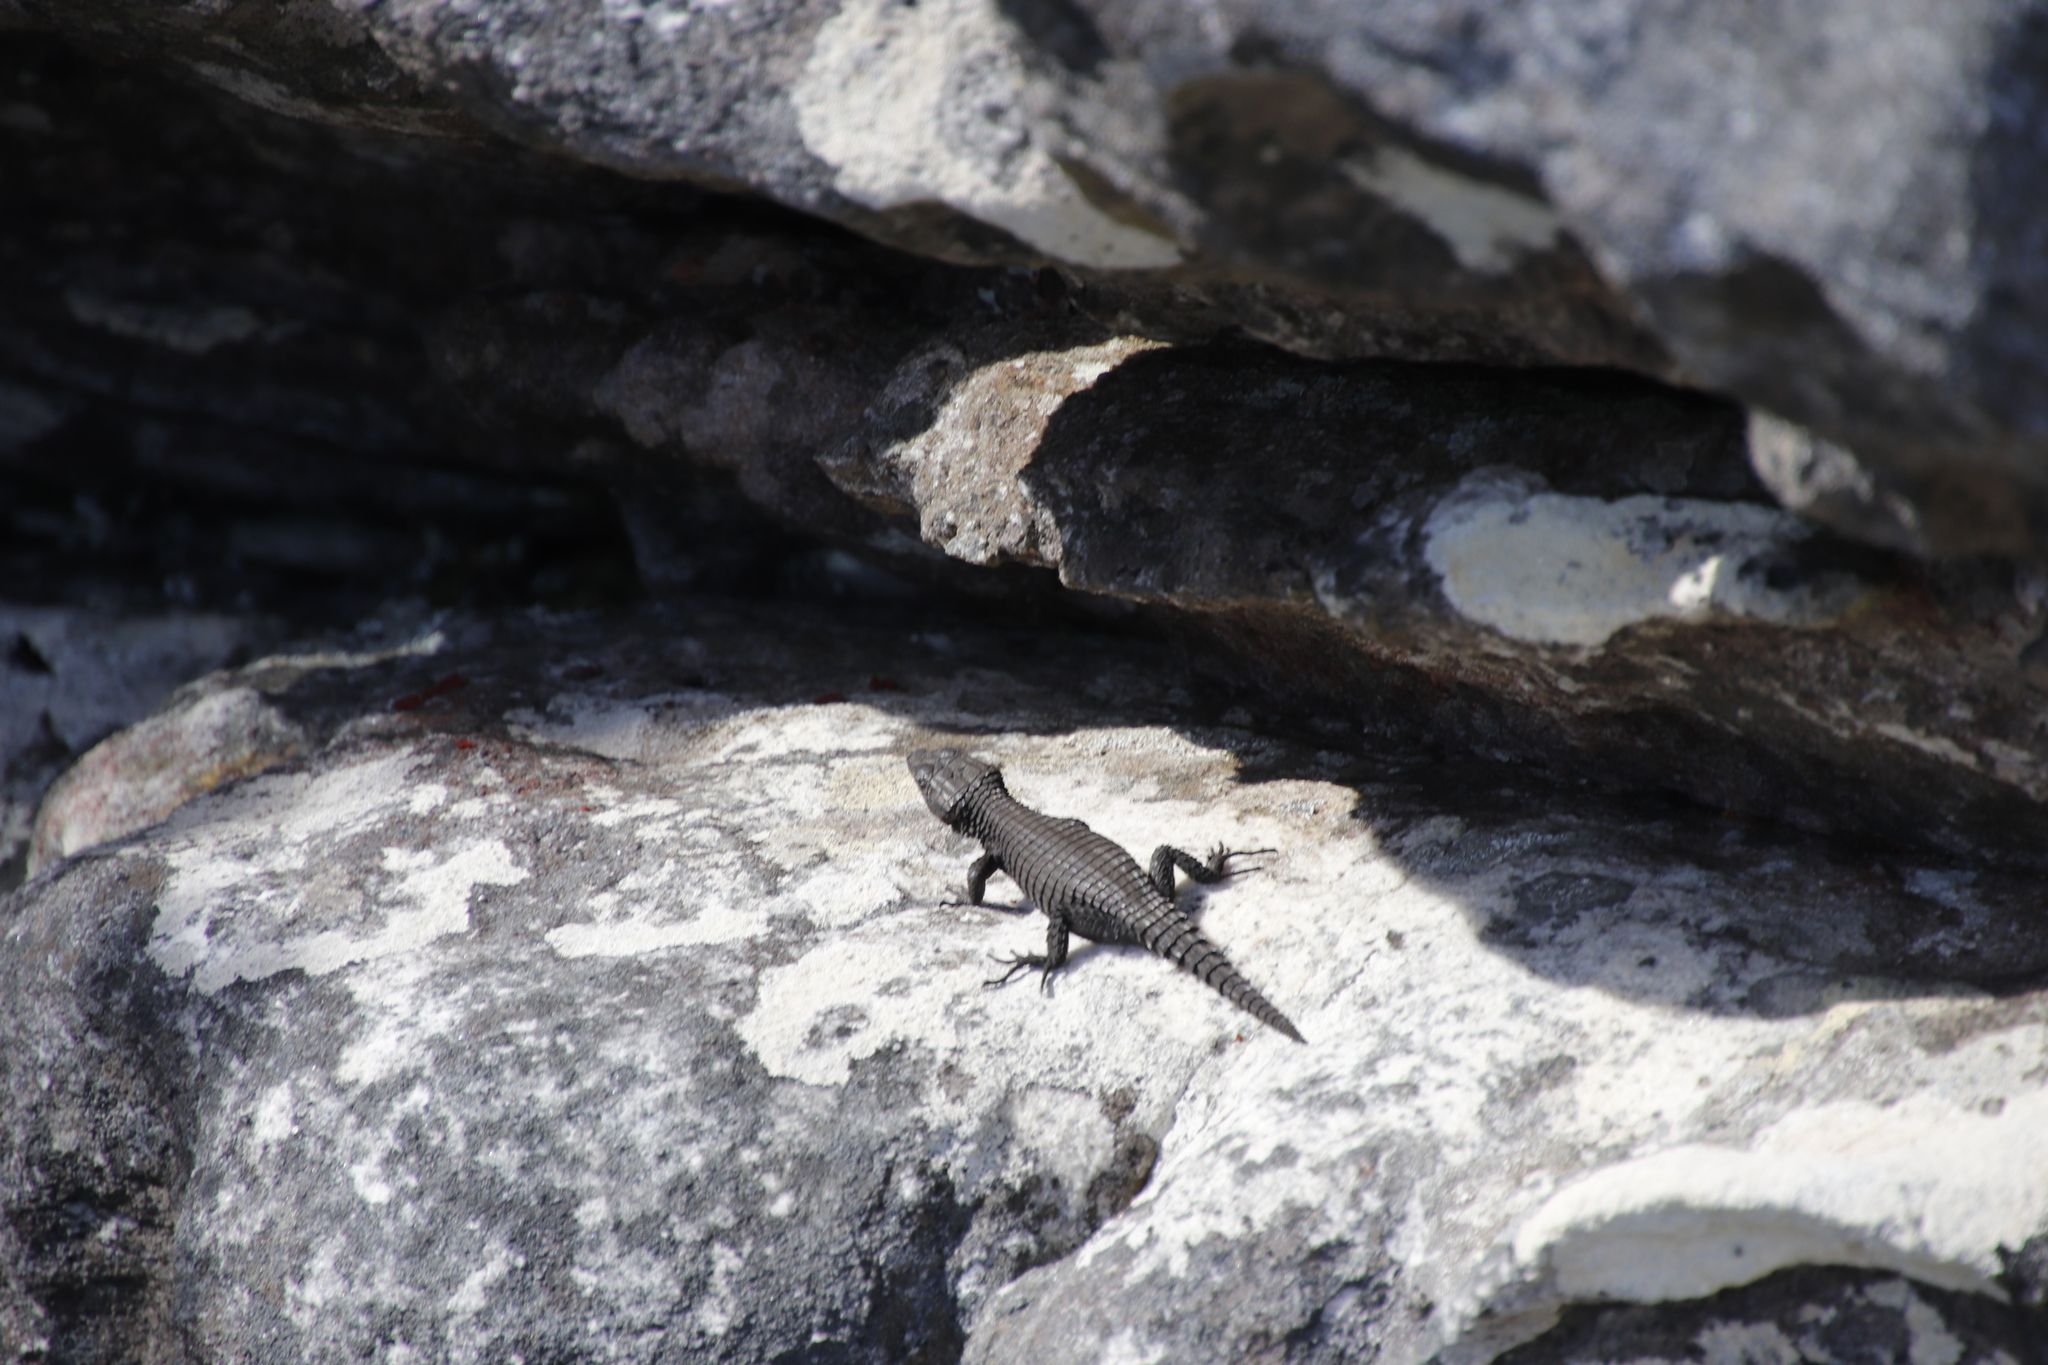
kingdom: Animalia
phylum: Chordata
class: Squamata
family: Cordylidae
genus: Cordylus
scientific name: Cordylus niger
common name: Black girdled lizard
